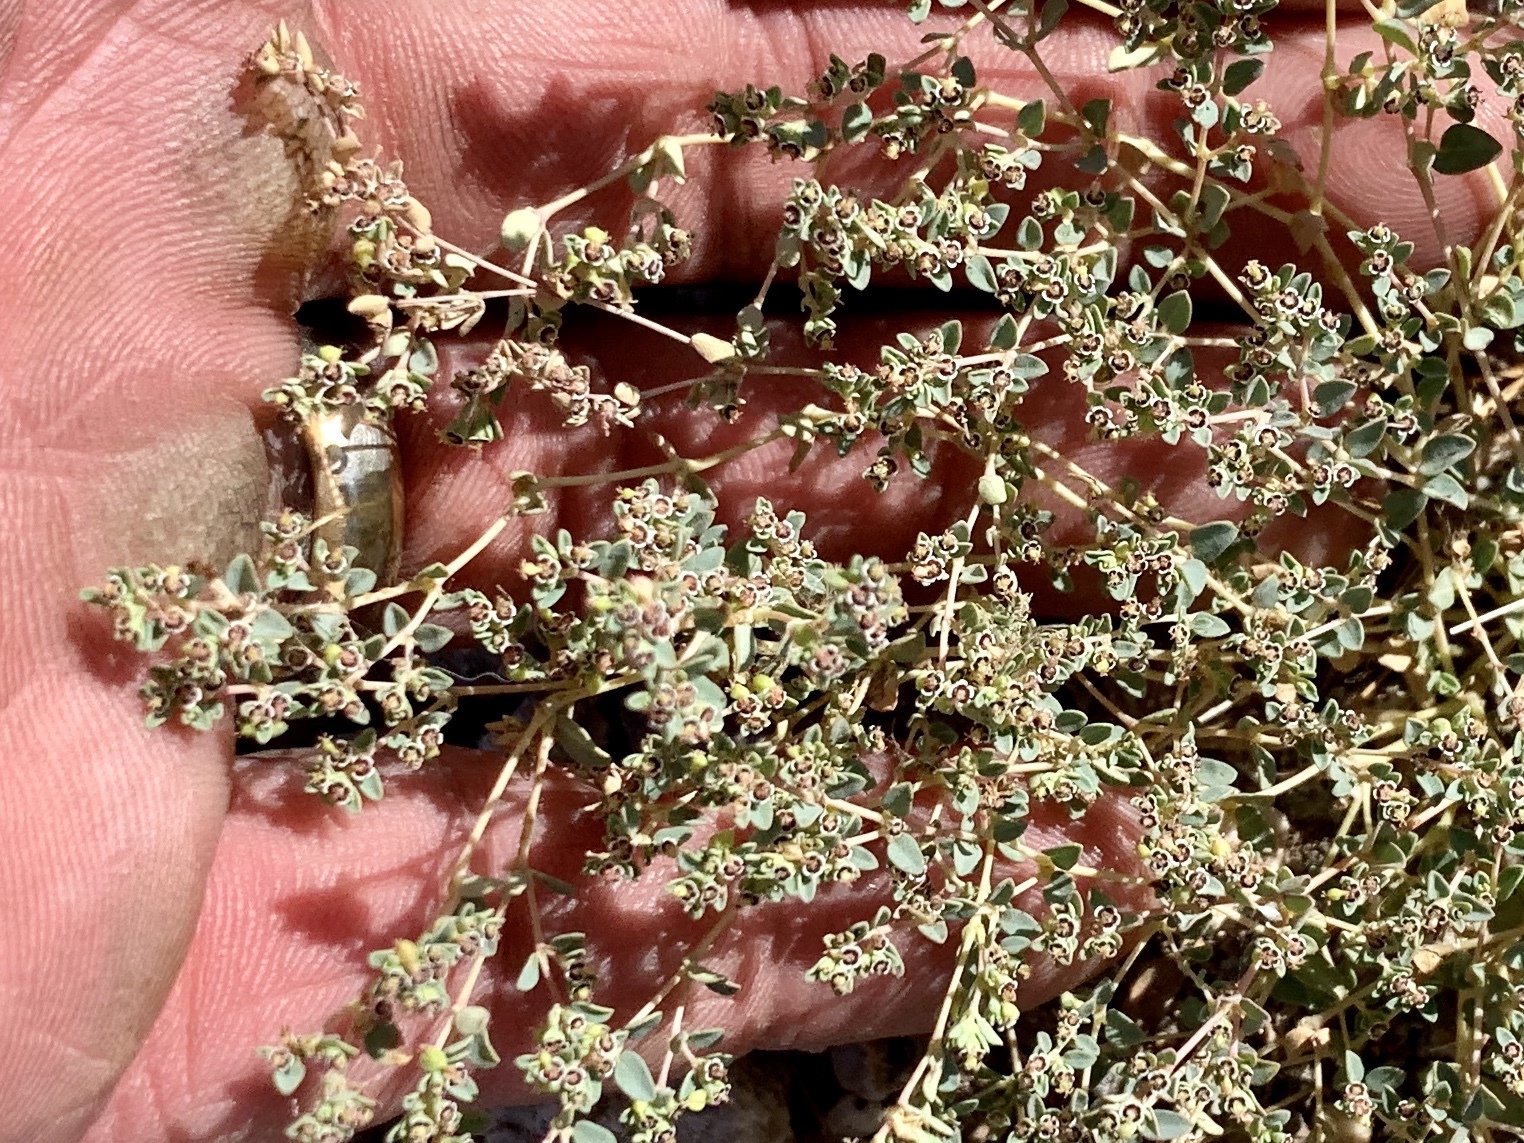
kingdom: Plantae
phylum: Tracheophyta
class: Magnoliopsida
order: Malpighiales
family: Euphorbiaceae
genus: Euphorbia
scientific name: Euphorbia polycarpa
